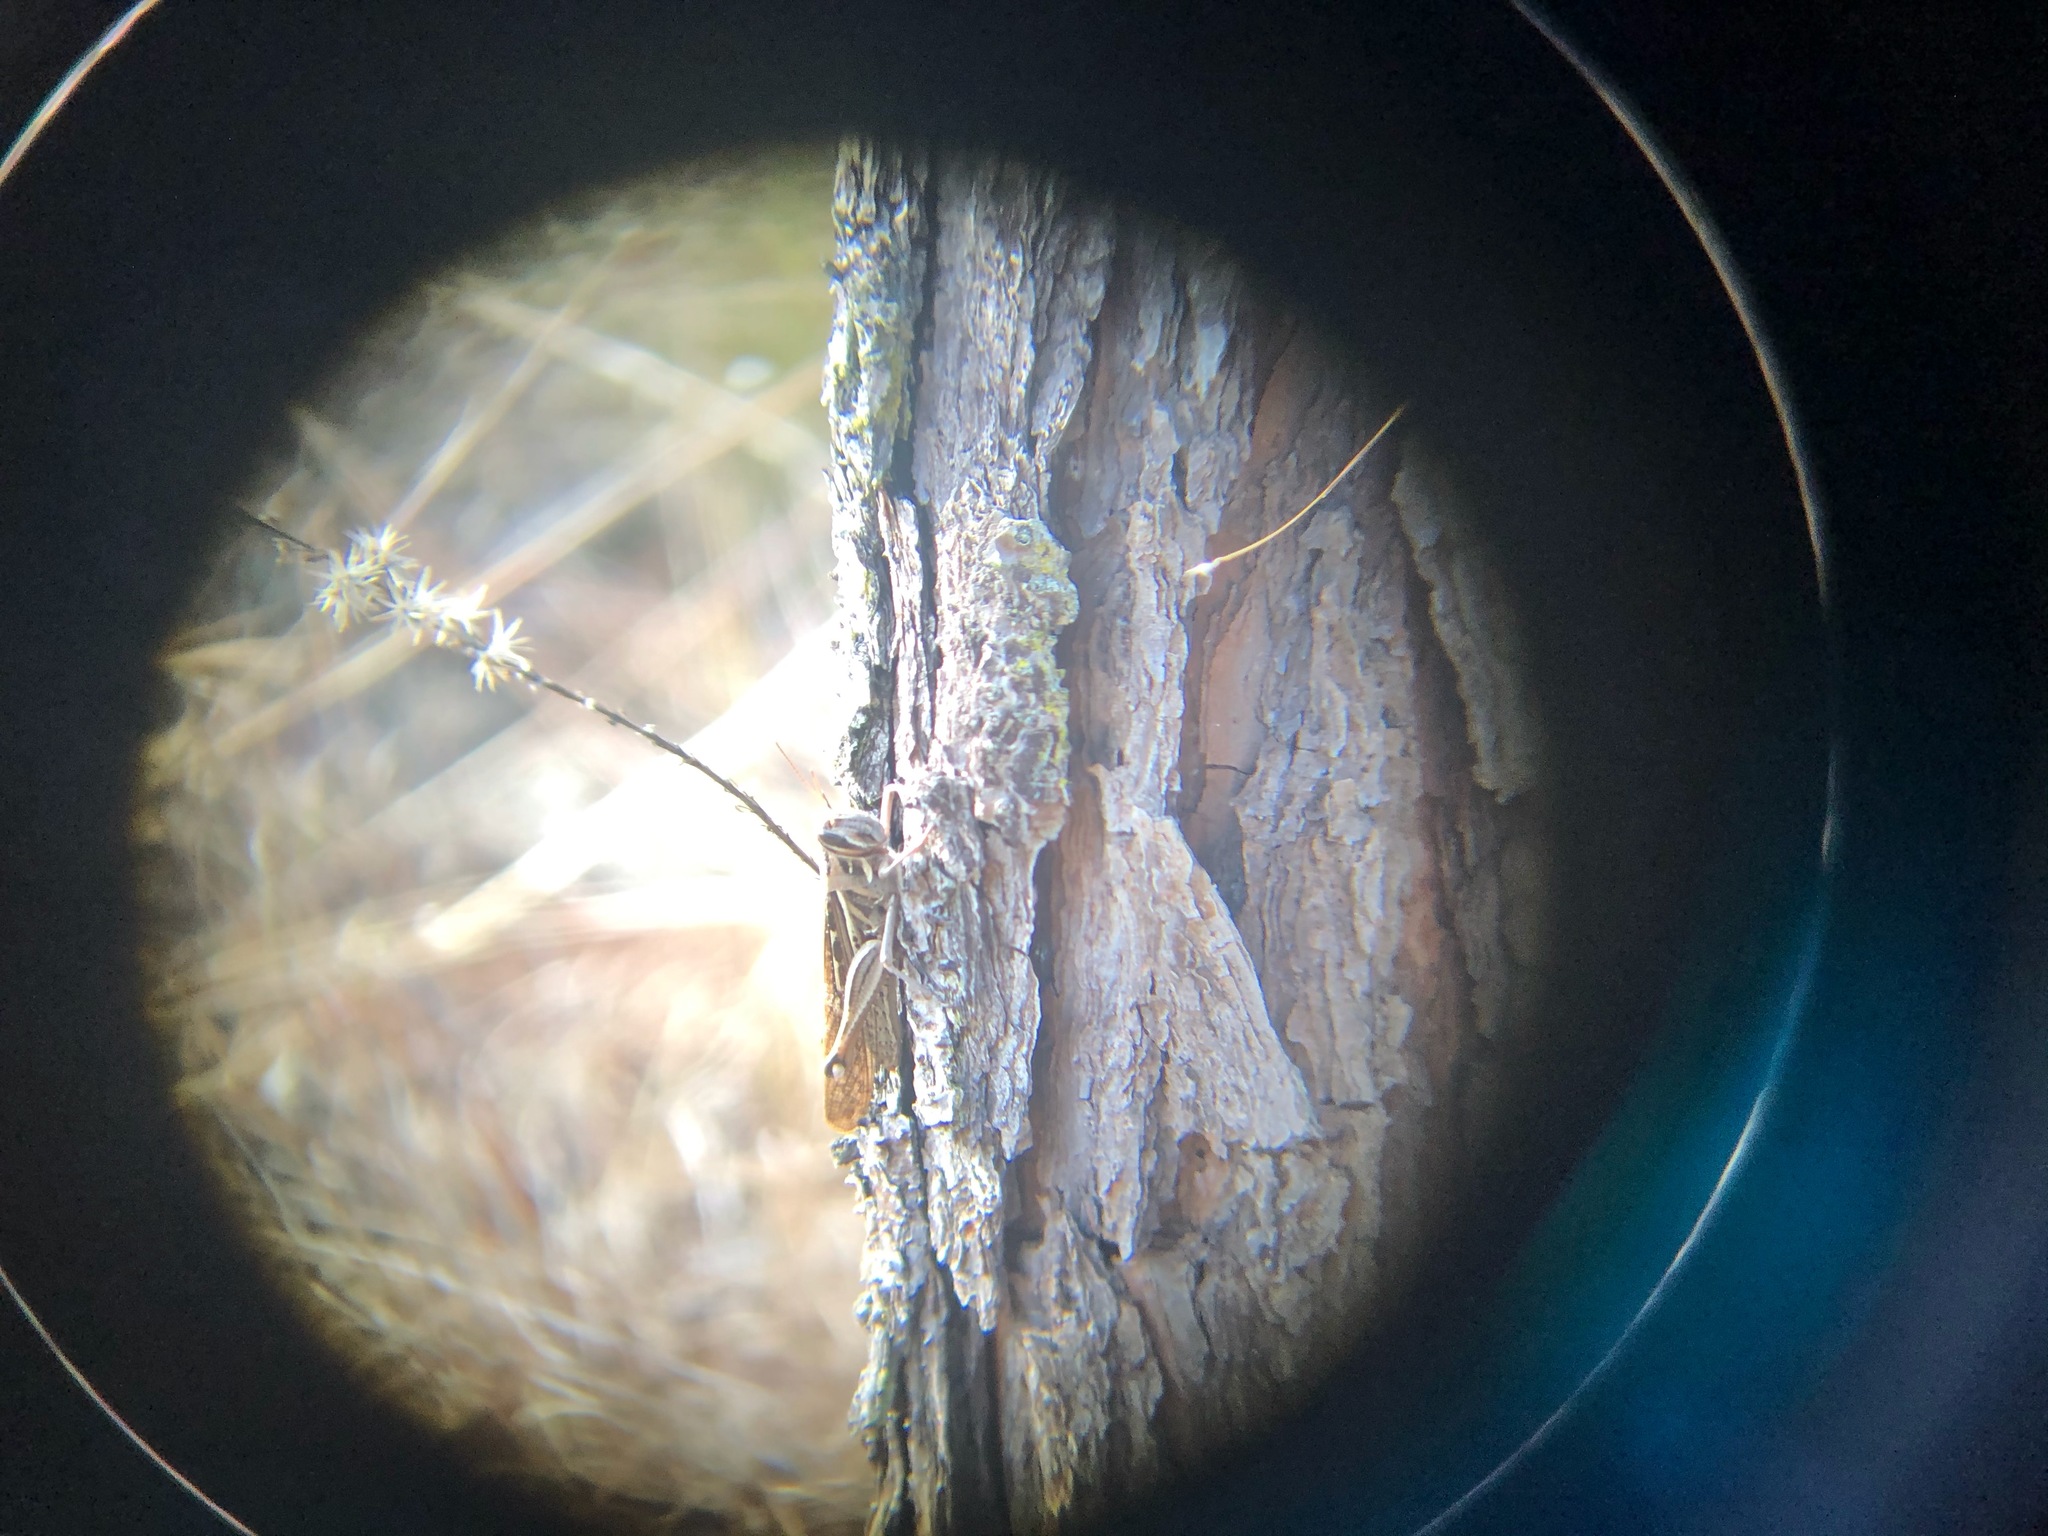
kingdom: Animalia
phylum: Arthropoda
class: Insecta
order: Orthoptera
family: Acrididae
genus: Schistocerca
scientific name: Schistocerca americana
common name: American bird locust
